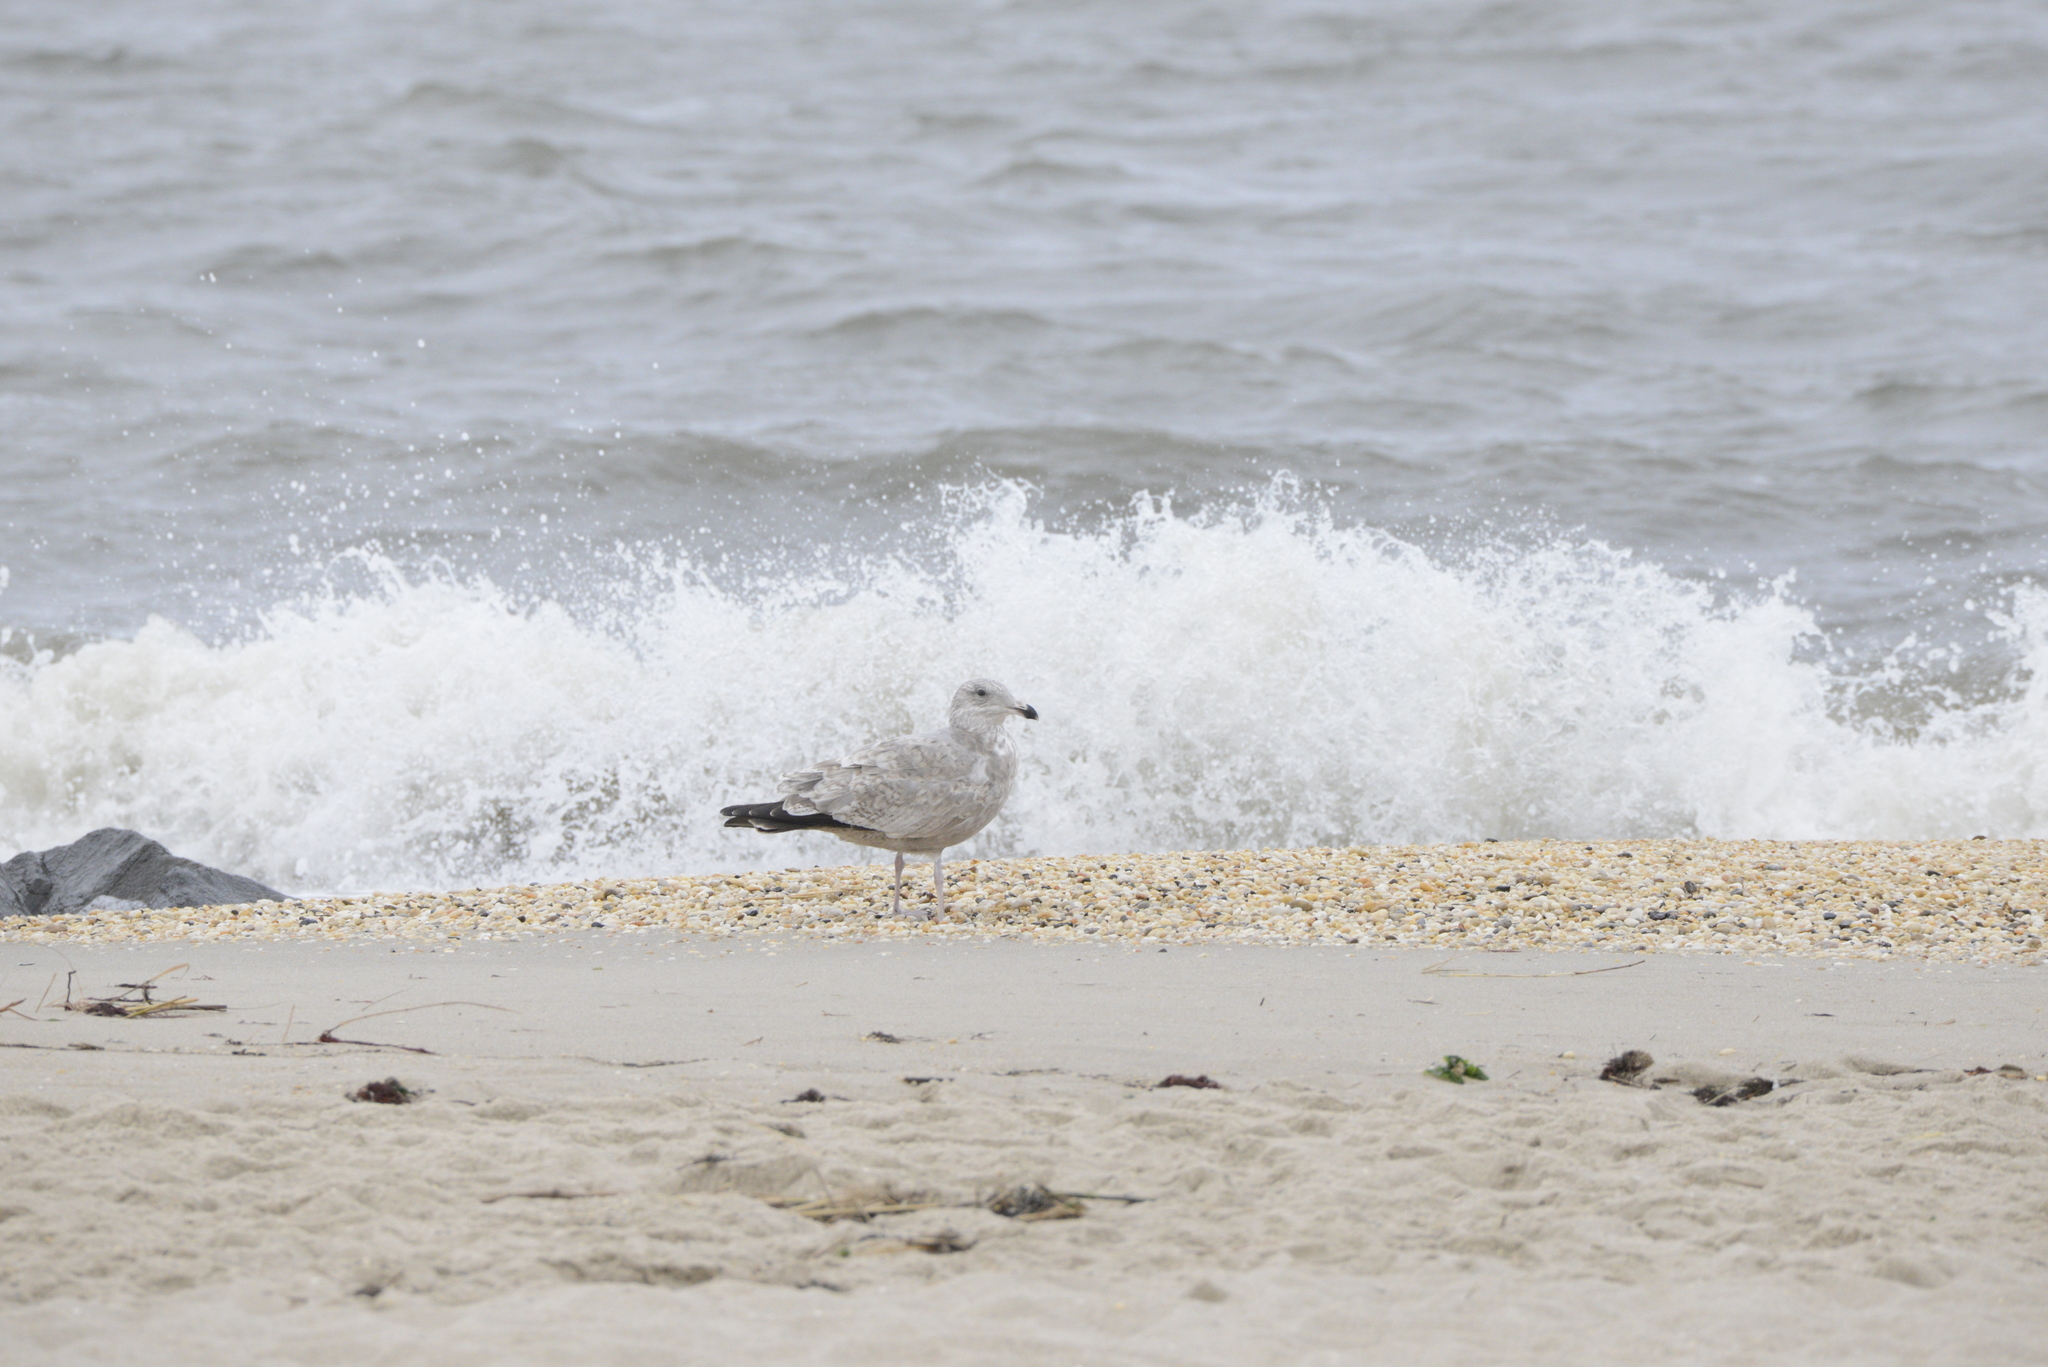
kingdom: Animalia
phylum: Chordata
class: Aves
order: Charadriiformes
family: Laridae
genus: Larus
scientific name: Larus argentatus
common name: Herring gull
